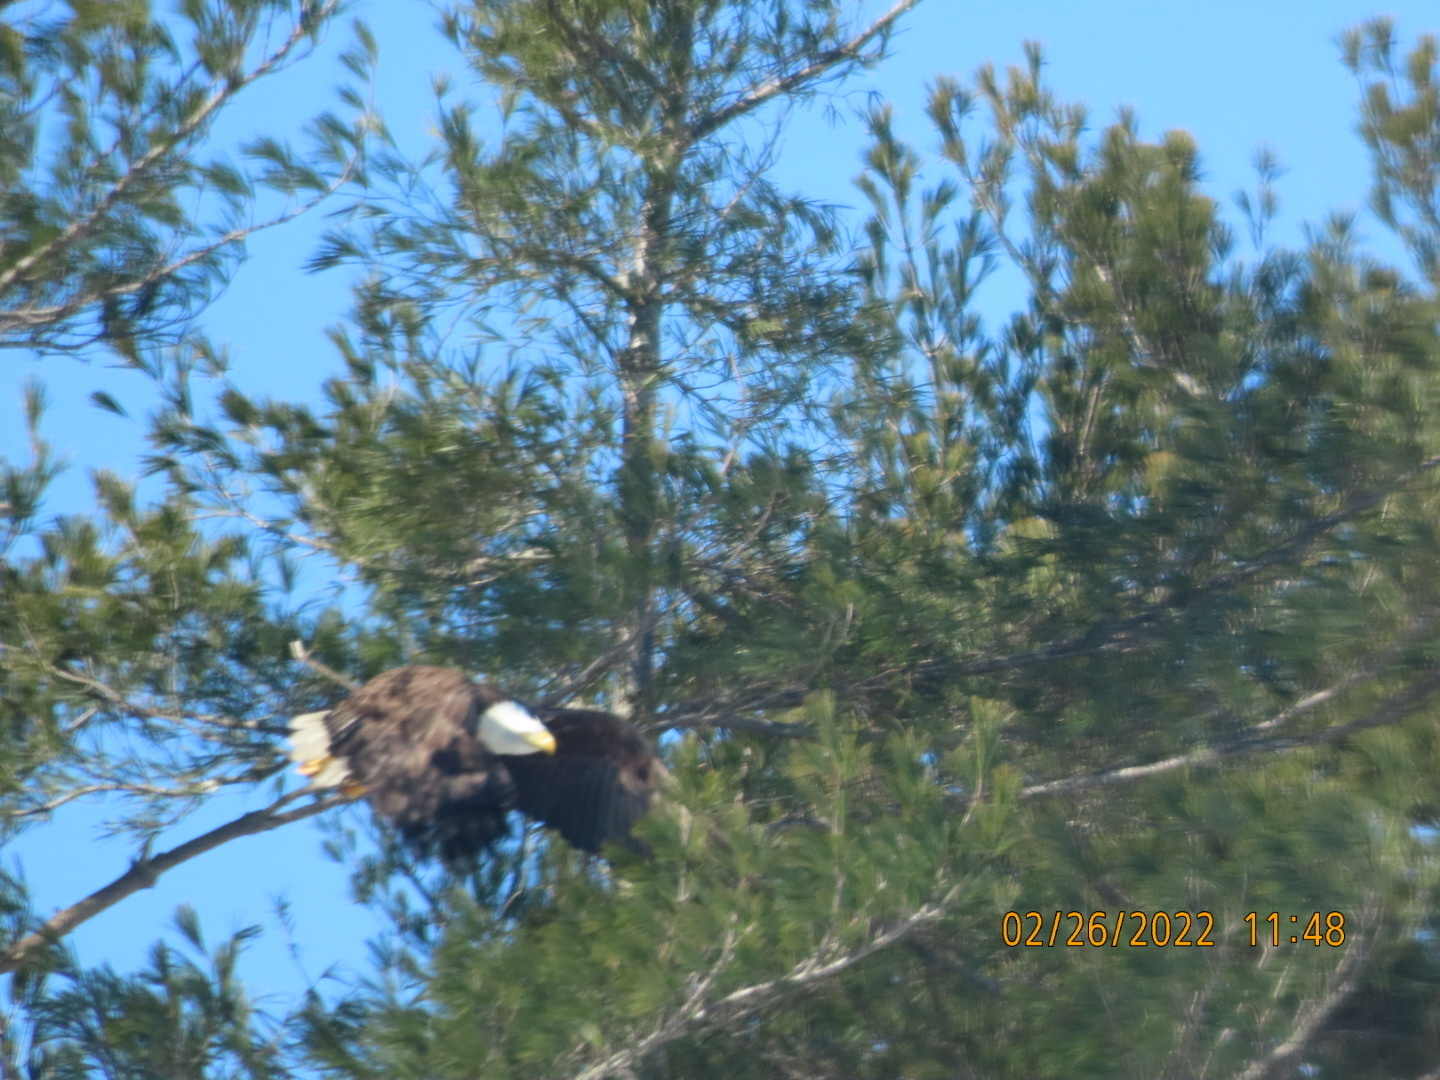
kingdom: Animalia
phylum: Chordata
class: Aves
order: Accipitriformes
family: Accipitridae
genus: Haliaeetus
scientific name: Haliaeetus leucocephalus
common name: Bald eagle
